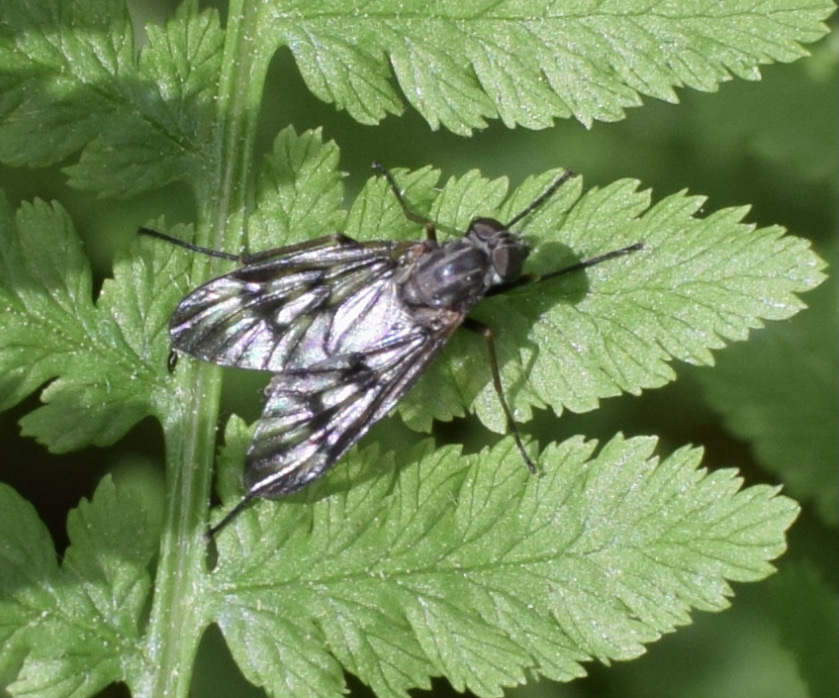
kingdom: Animalia
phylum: Arthropoda
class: Insecta
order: Diptera
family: Rhagionidae
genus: Rhagio
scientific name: Rhagio mystaceus
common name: Common snipe fly
